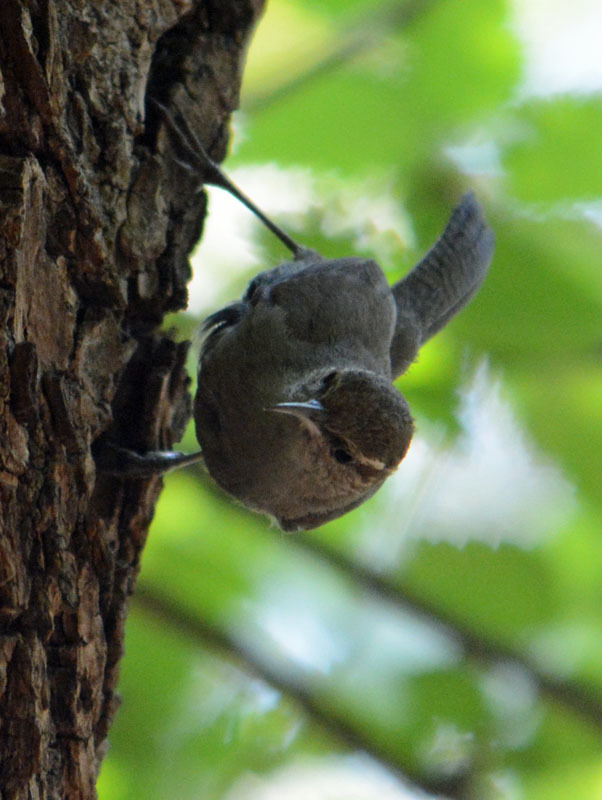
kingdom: Animalia
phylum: Chordata
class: Aves
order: Passeriformes
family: Troglodytidae
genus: Thryomanes
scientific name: Thryomanes bewickii
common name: Bewick's wren
